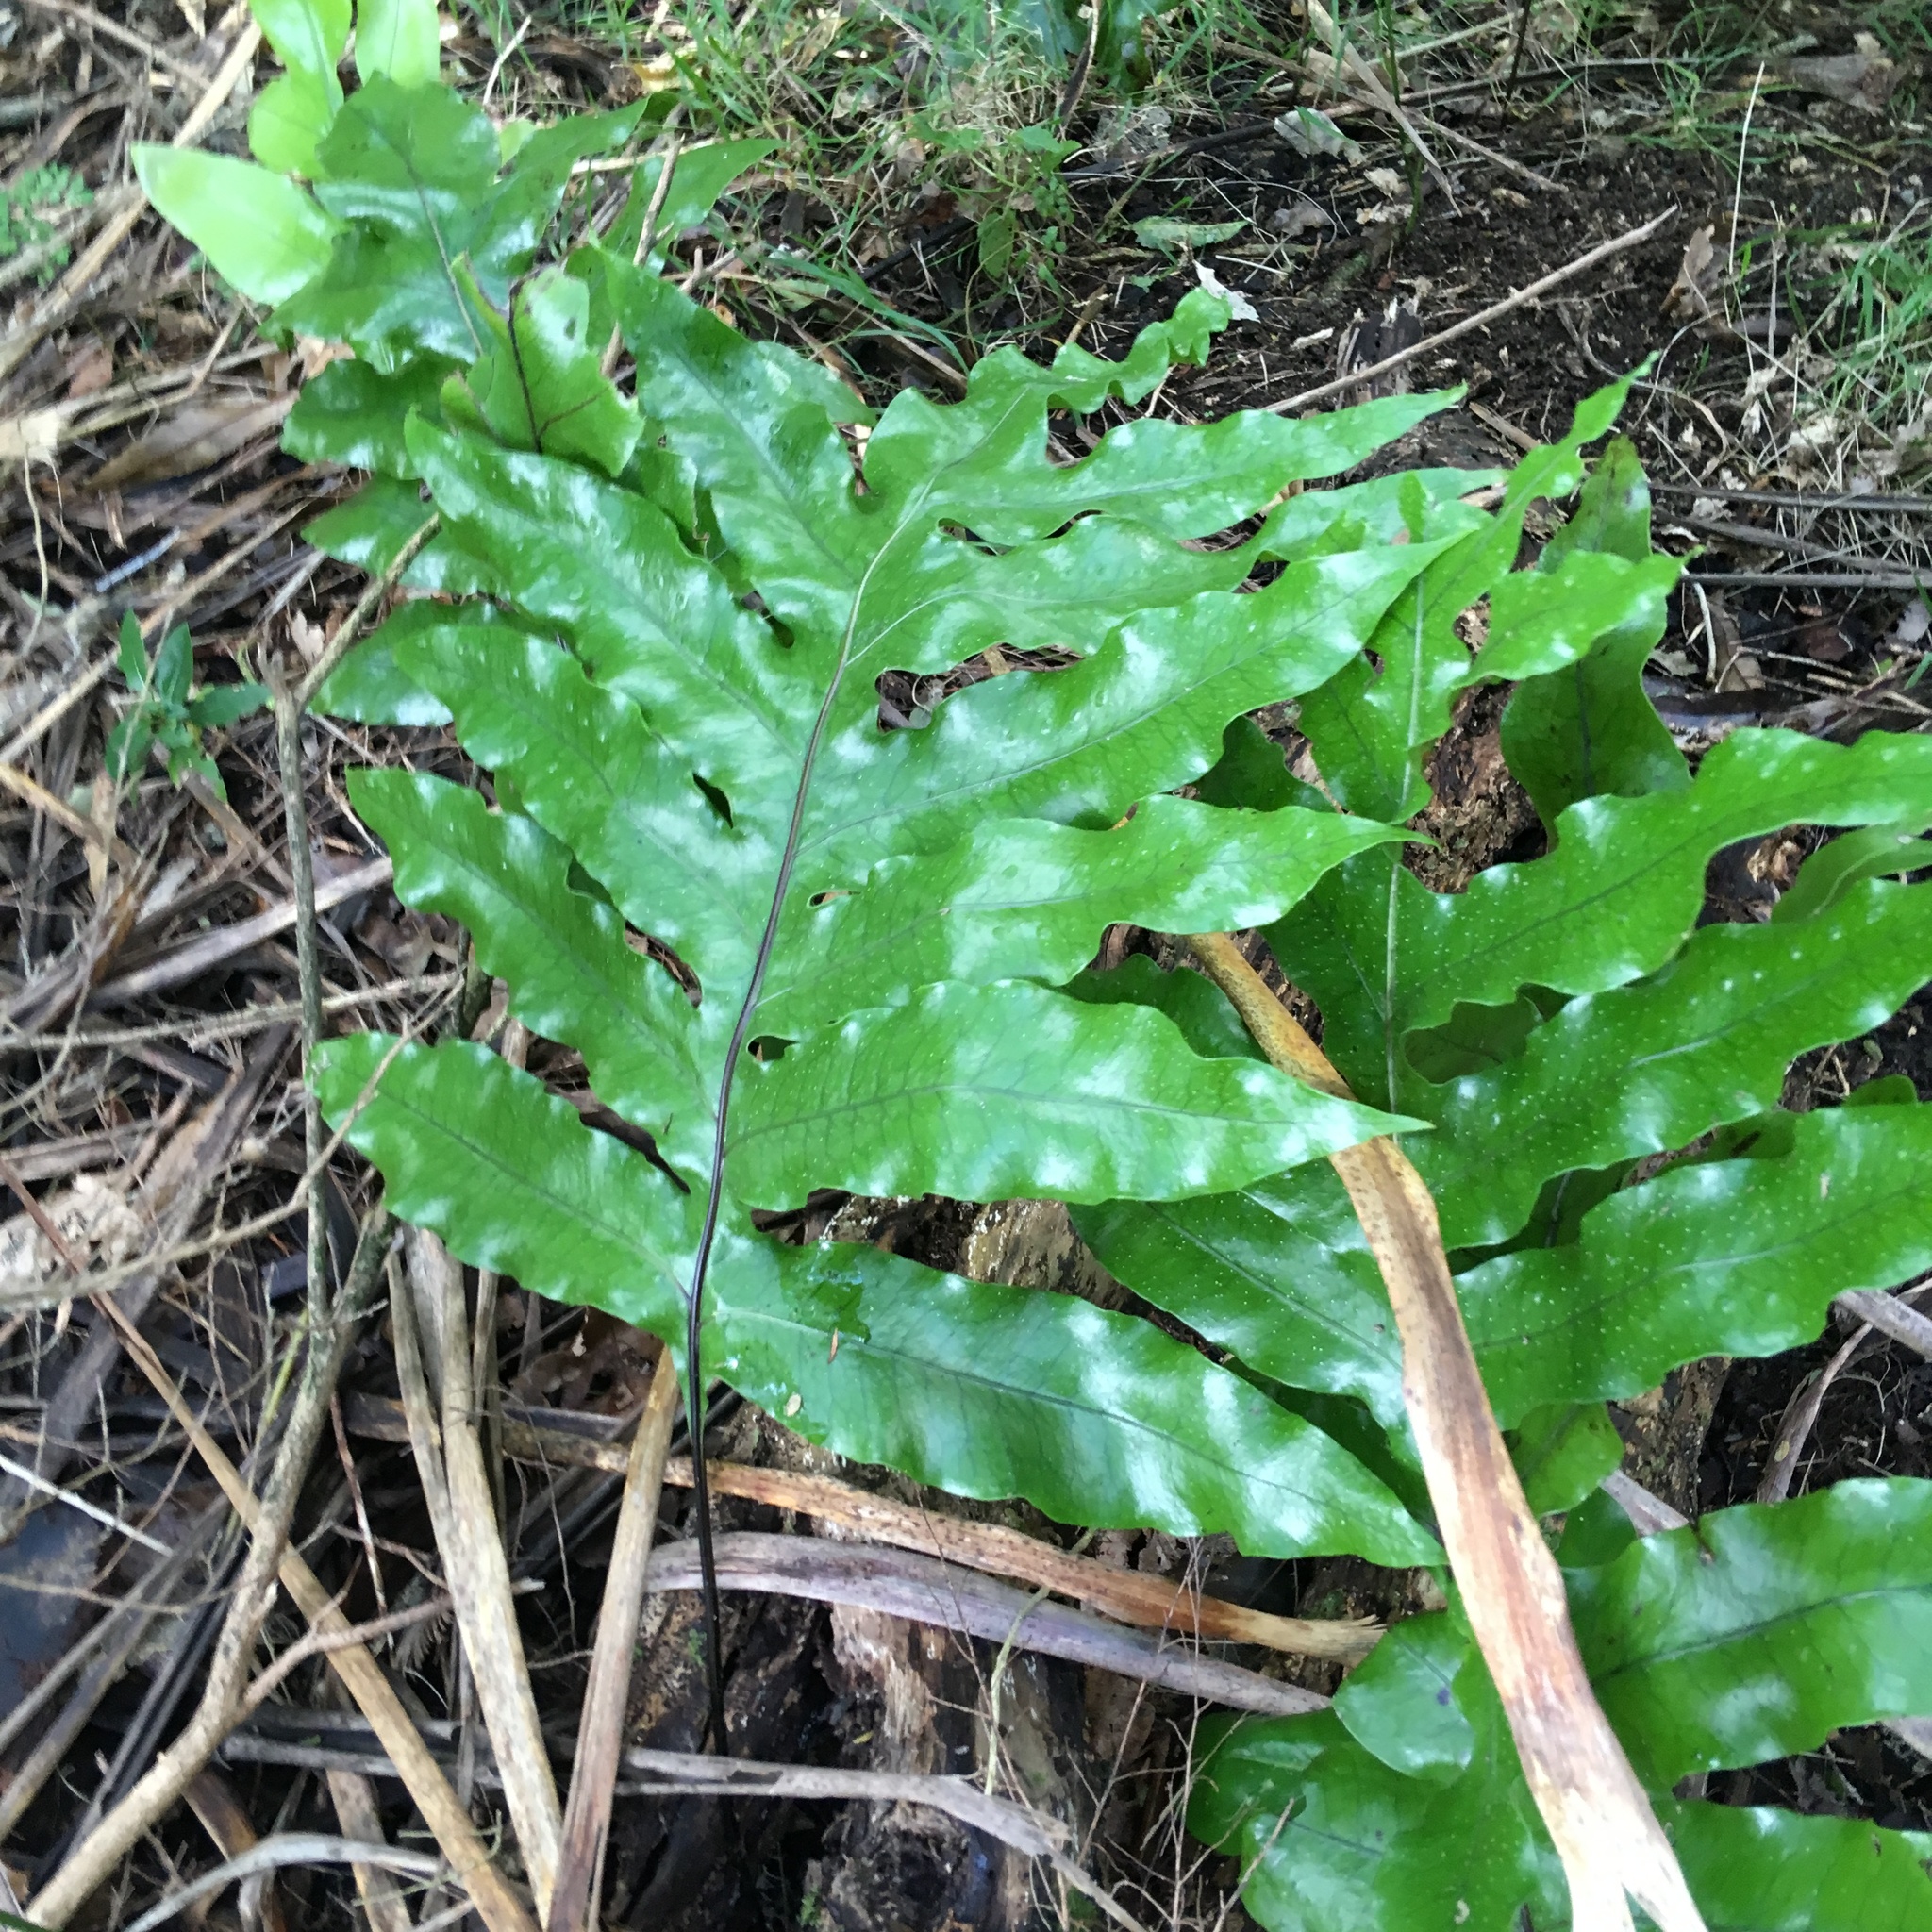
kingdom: Plantae
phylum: Tracheophyta
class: Polypodiopsida
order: Polypodiales
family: Polypodiaceae
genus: Lecanopteris
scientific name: Lecanopteris pustulata
